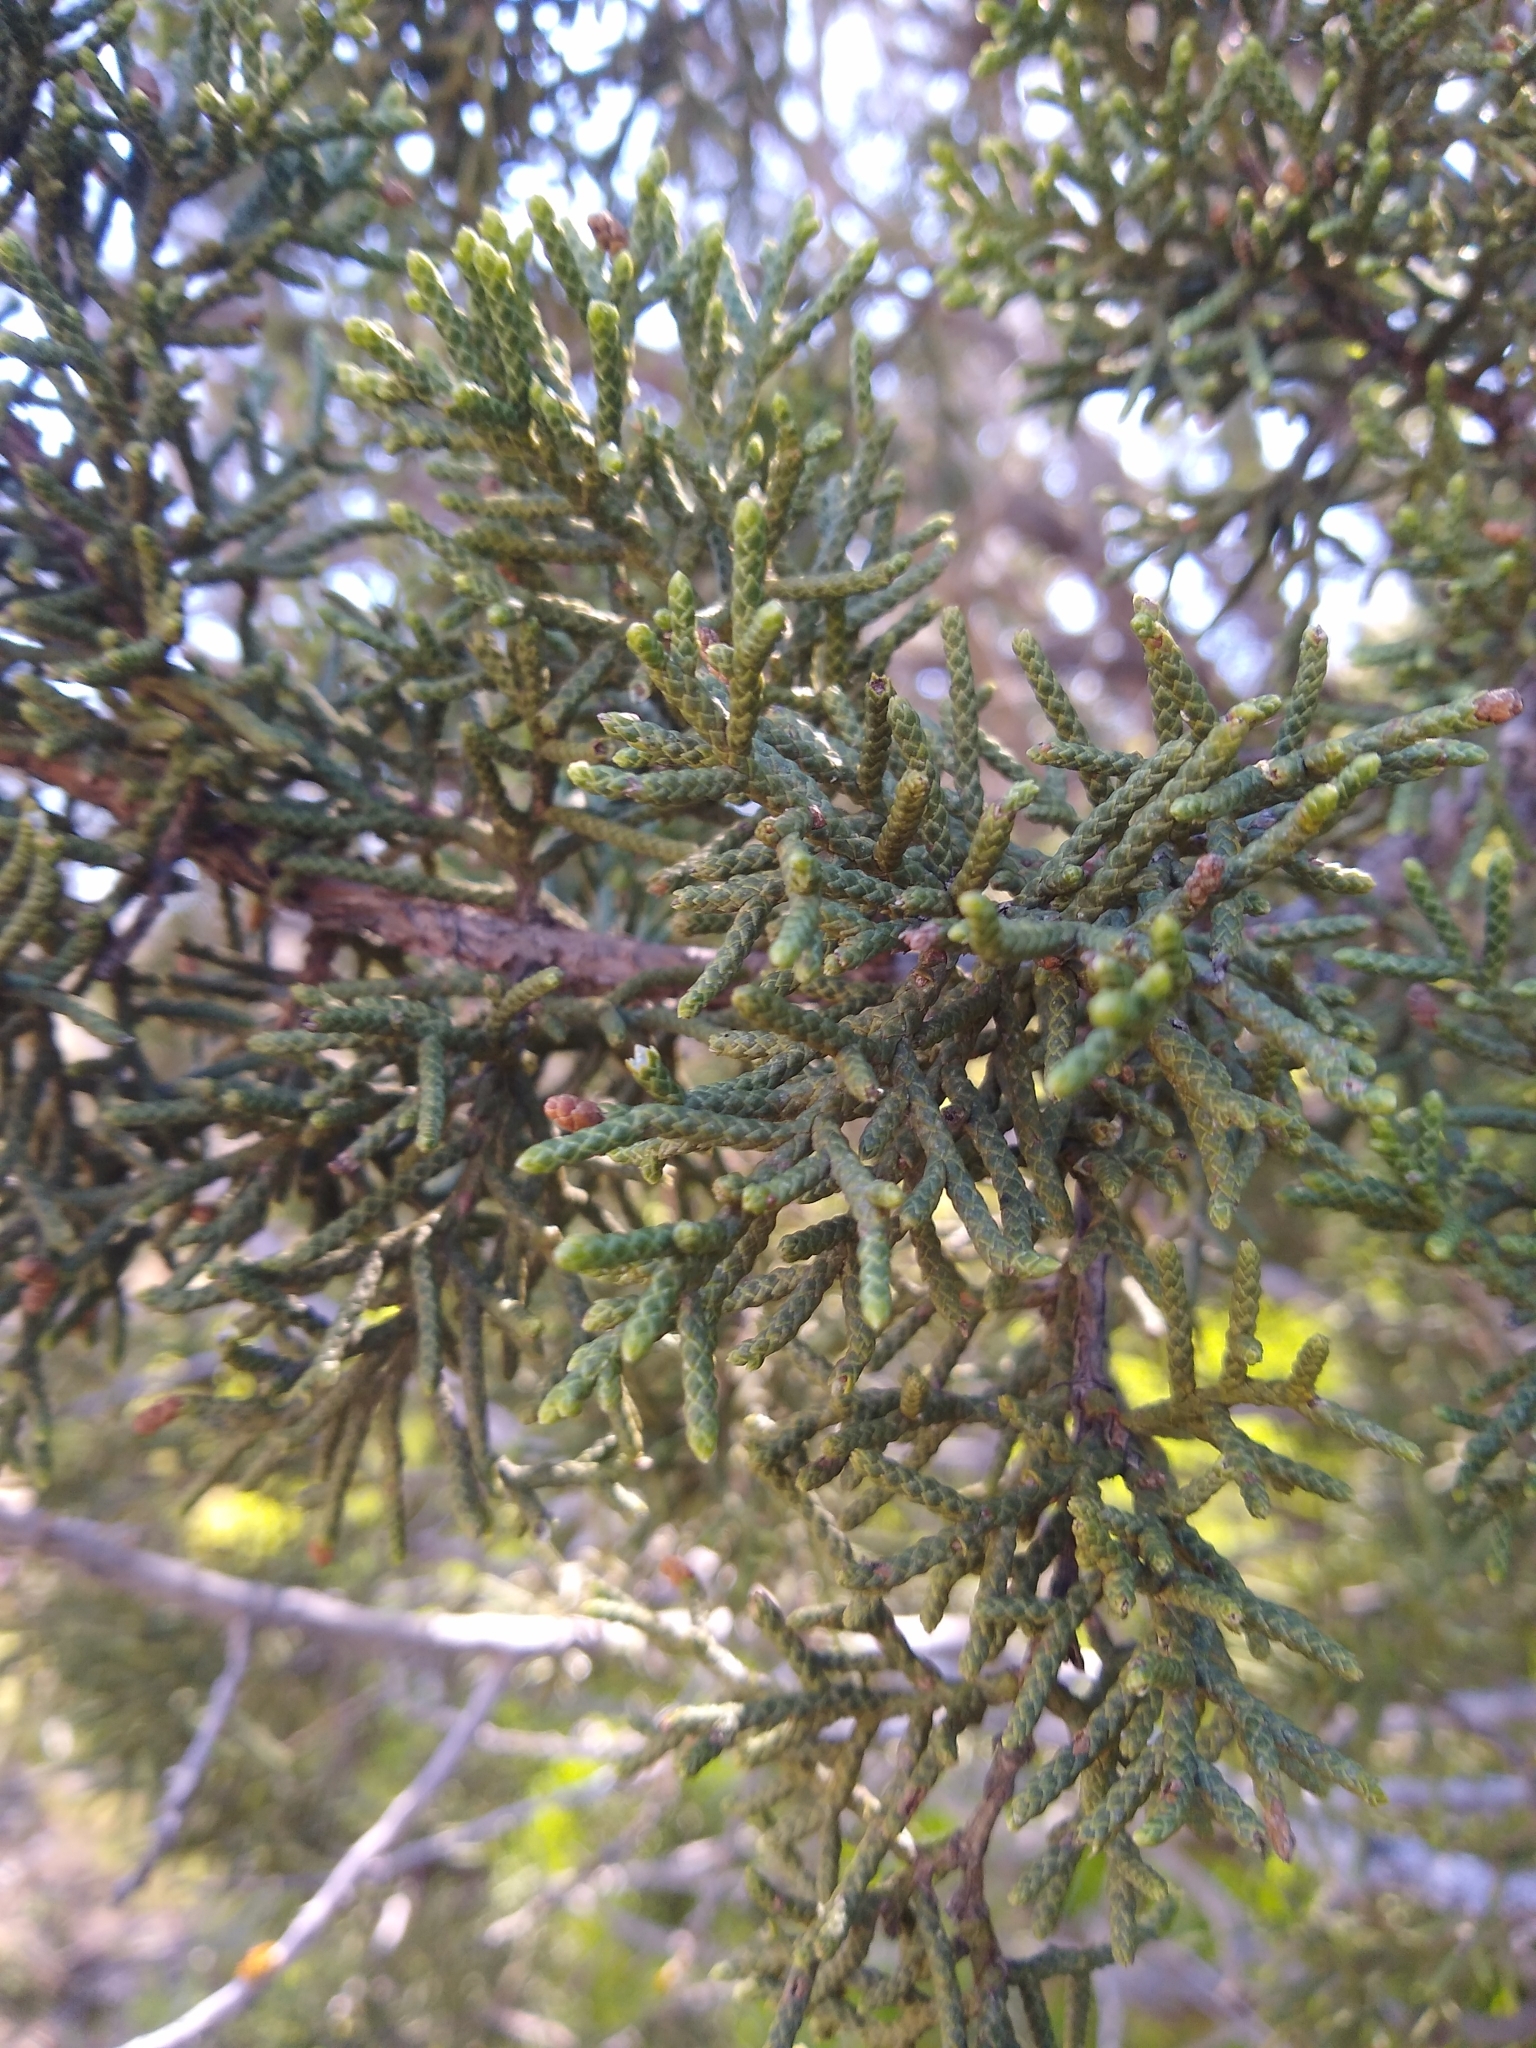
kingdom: Plantae
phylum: Tracheophyta
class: Pinopsida
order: Pinales
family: Cupressaceae
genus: Juniperus
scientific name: Juniperus californica
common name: California juniper
